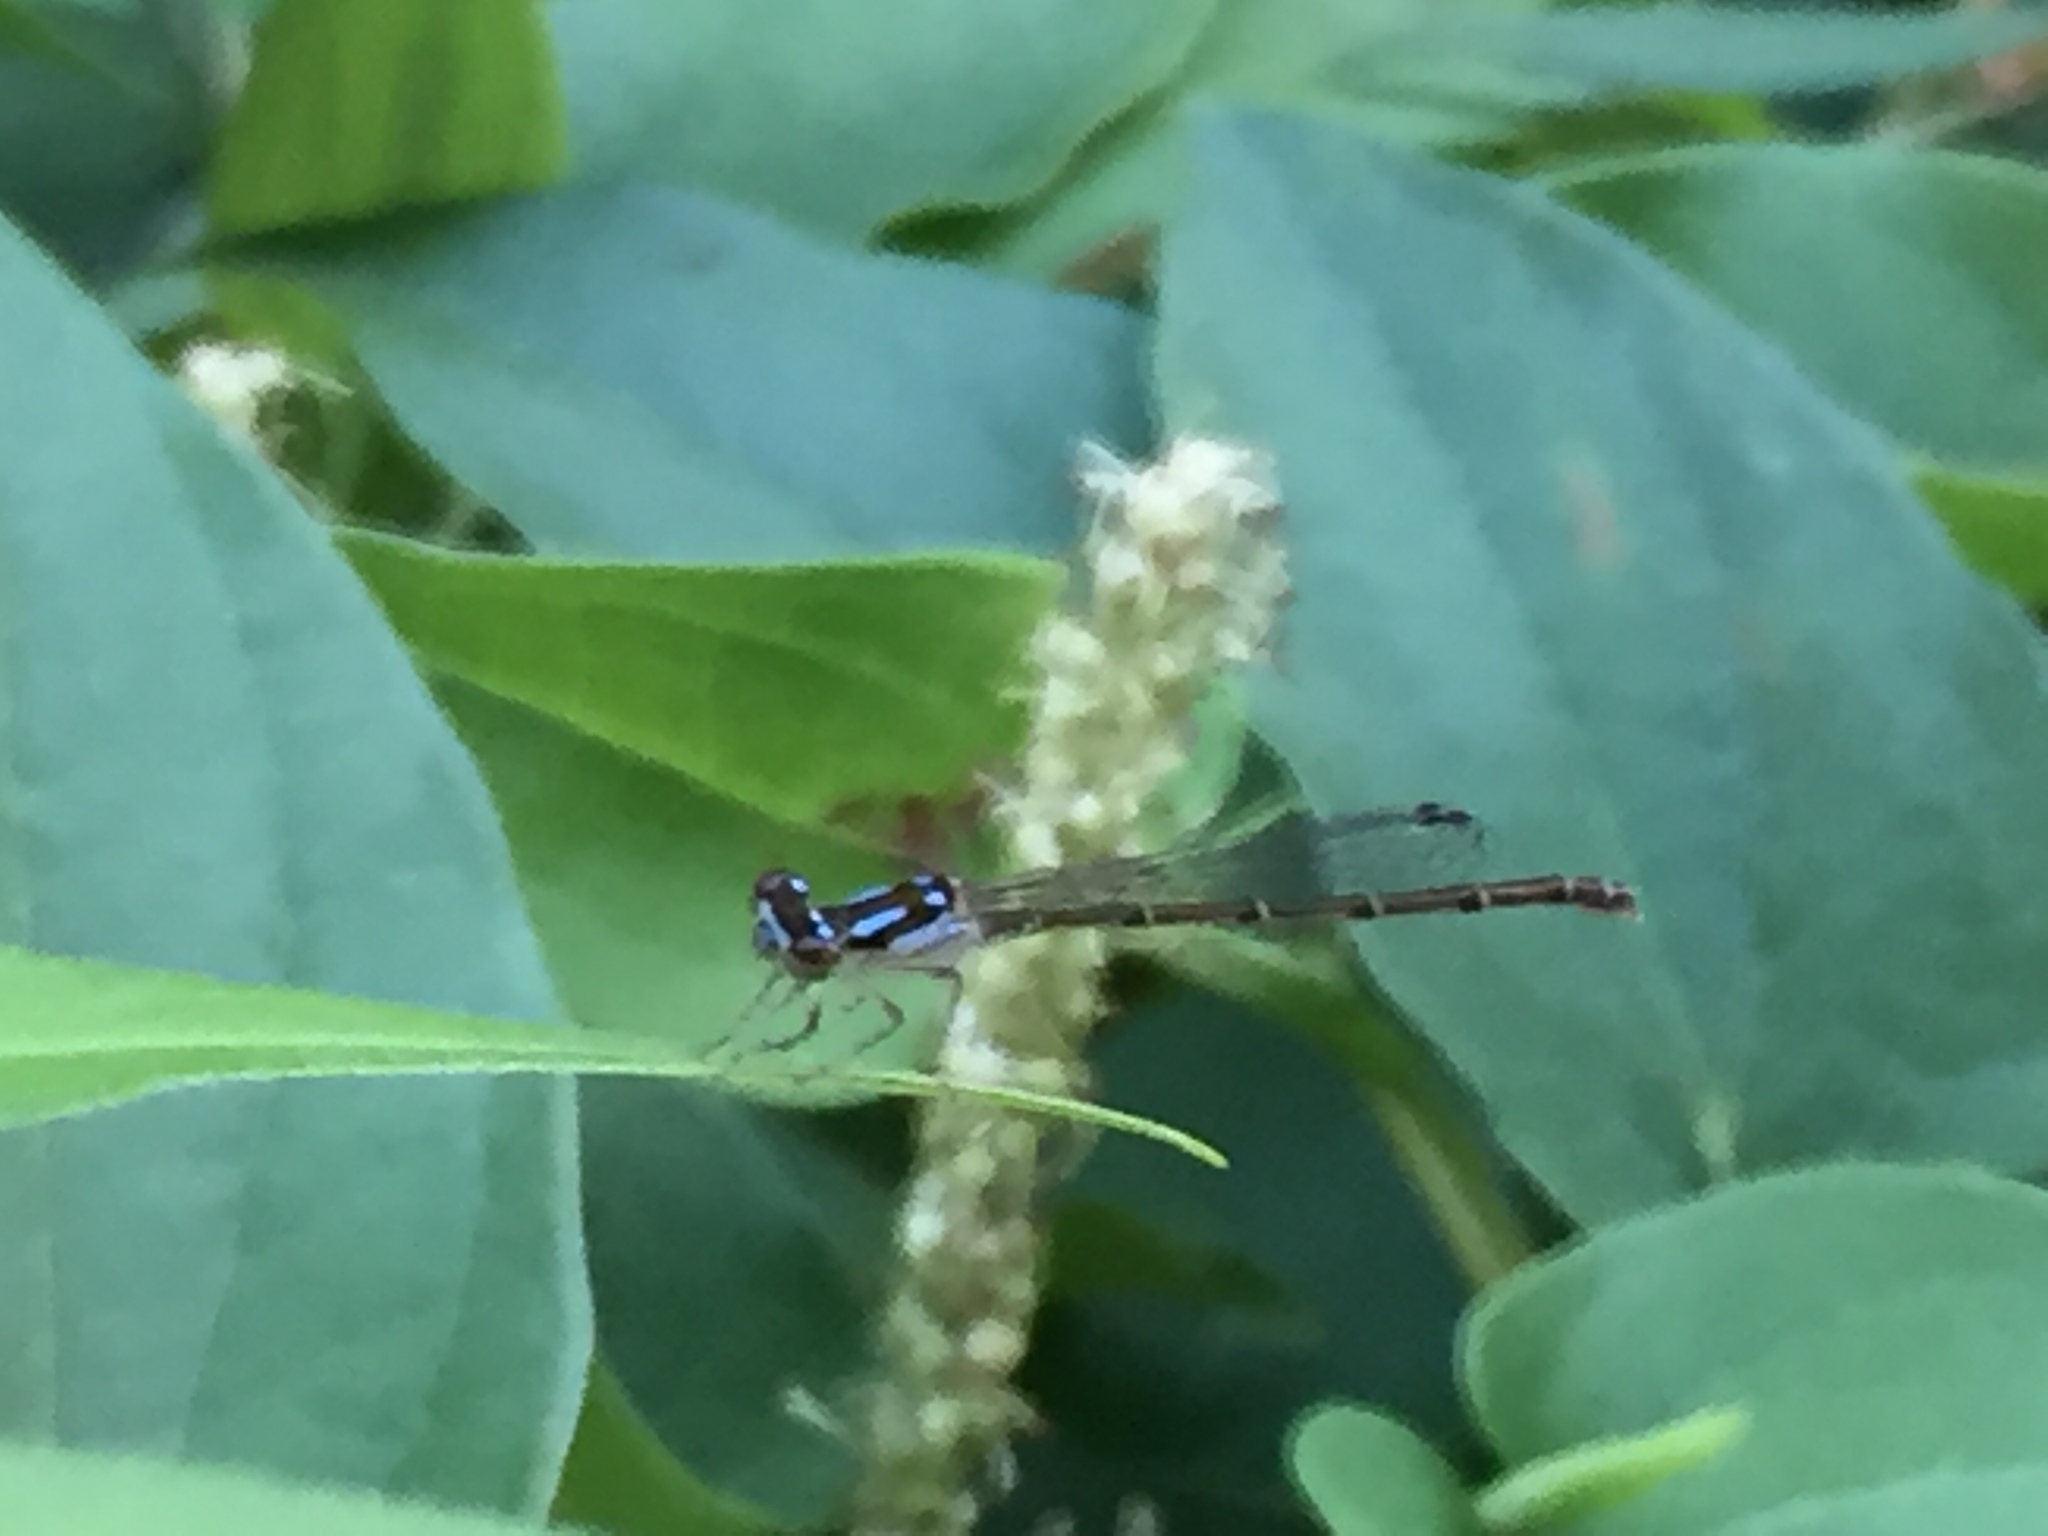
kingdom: Animalia
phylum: Arthropoda
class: Insecta
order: Odonata
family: Coenagrionidae
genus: Ischnura
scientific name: Ischnura posita
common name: Fragile forktail
